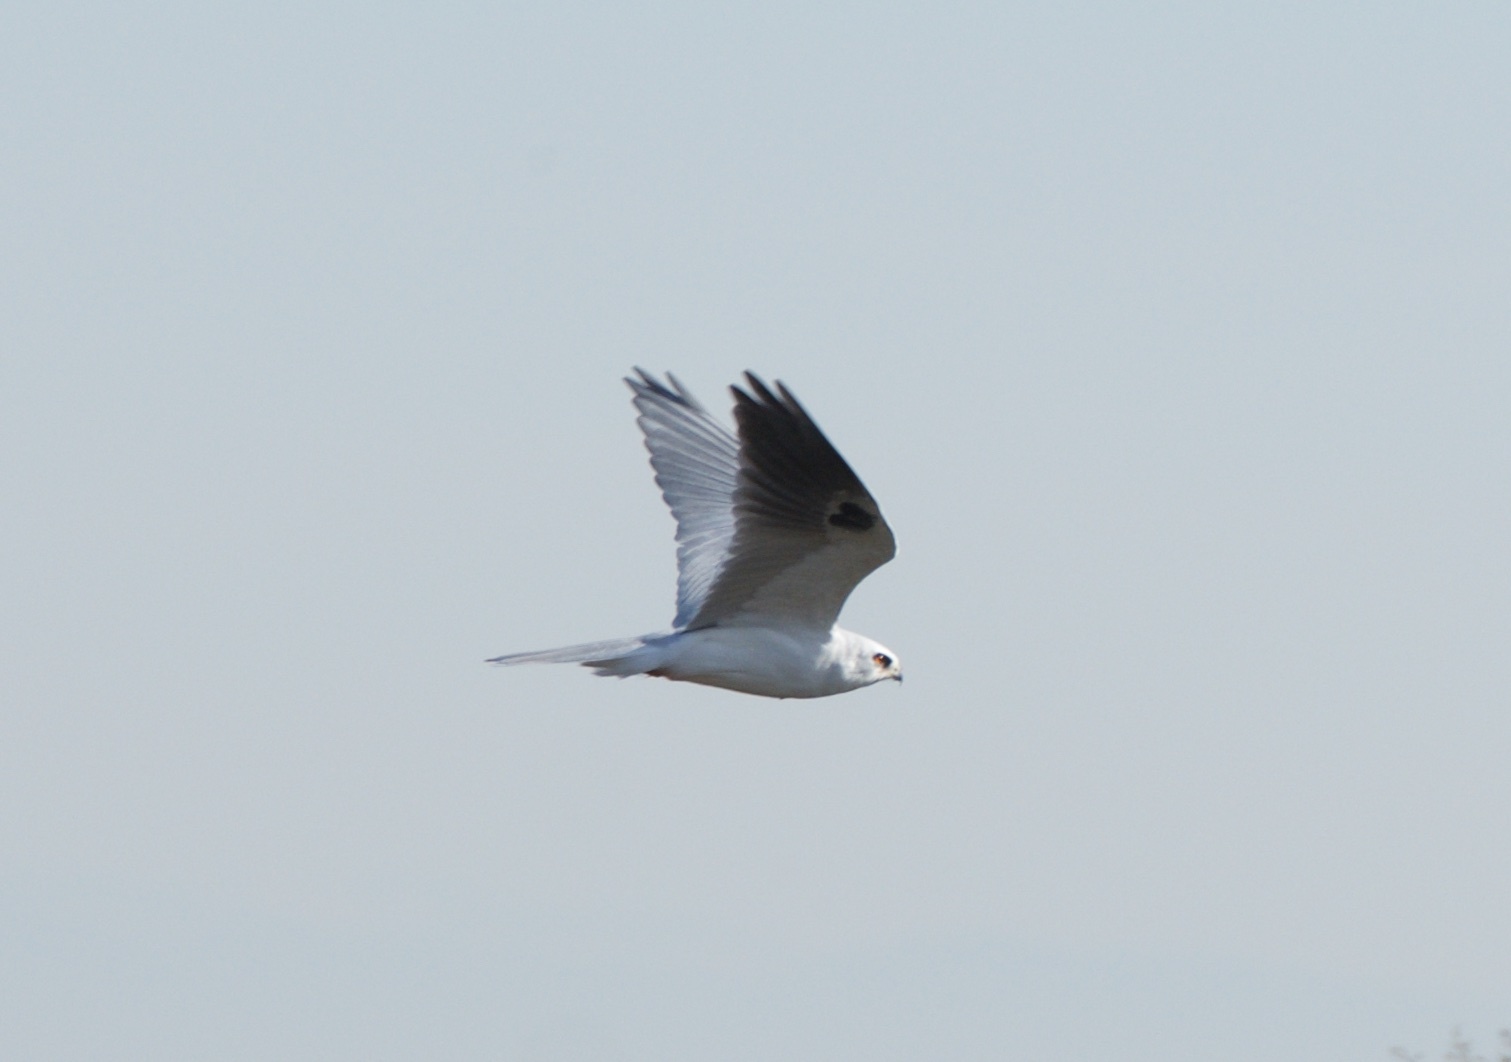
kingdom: Animalia
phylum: Chordata
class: Aves
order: Accipitriformes
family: Accipitridae
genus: Elanus
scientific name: Elanus leucurus
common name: White-tailed kite
